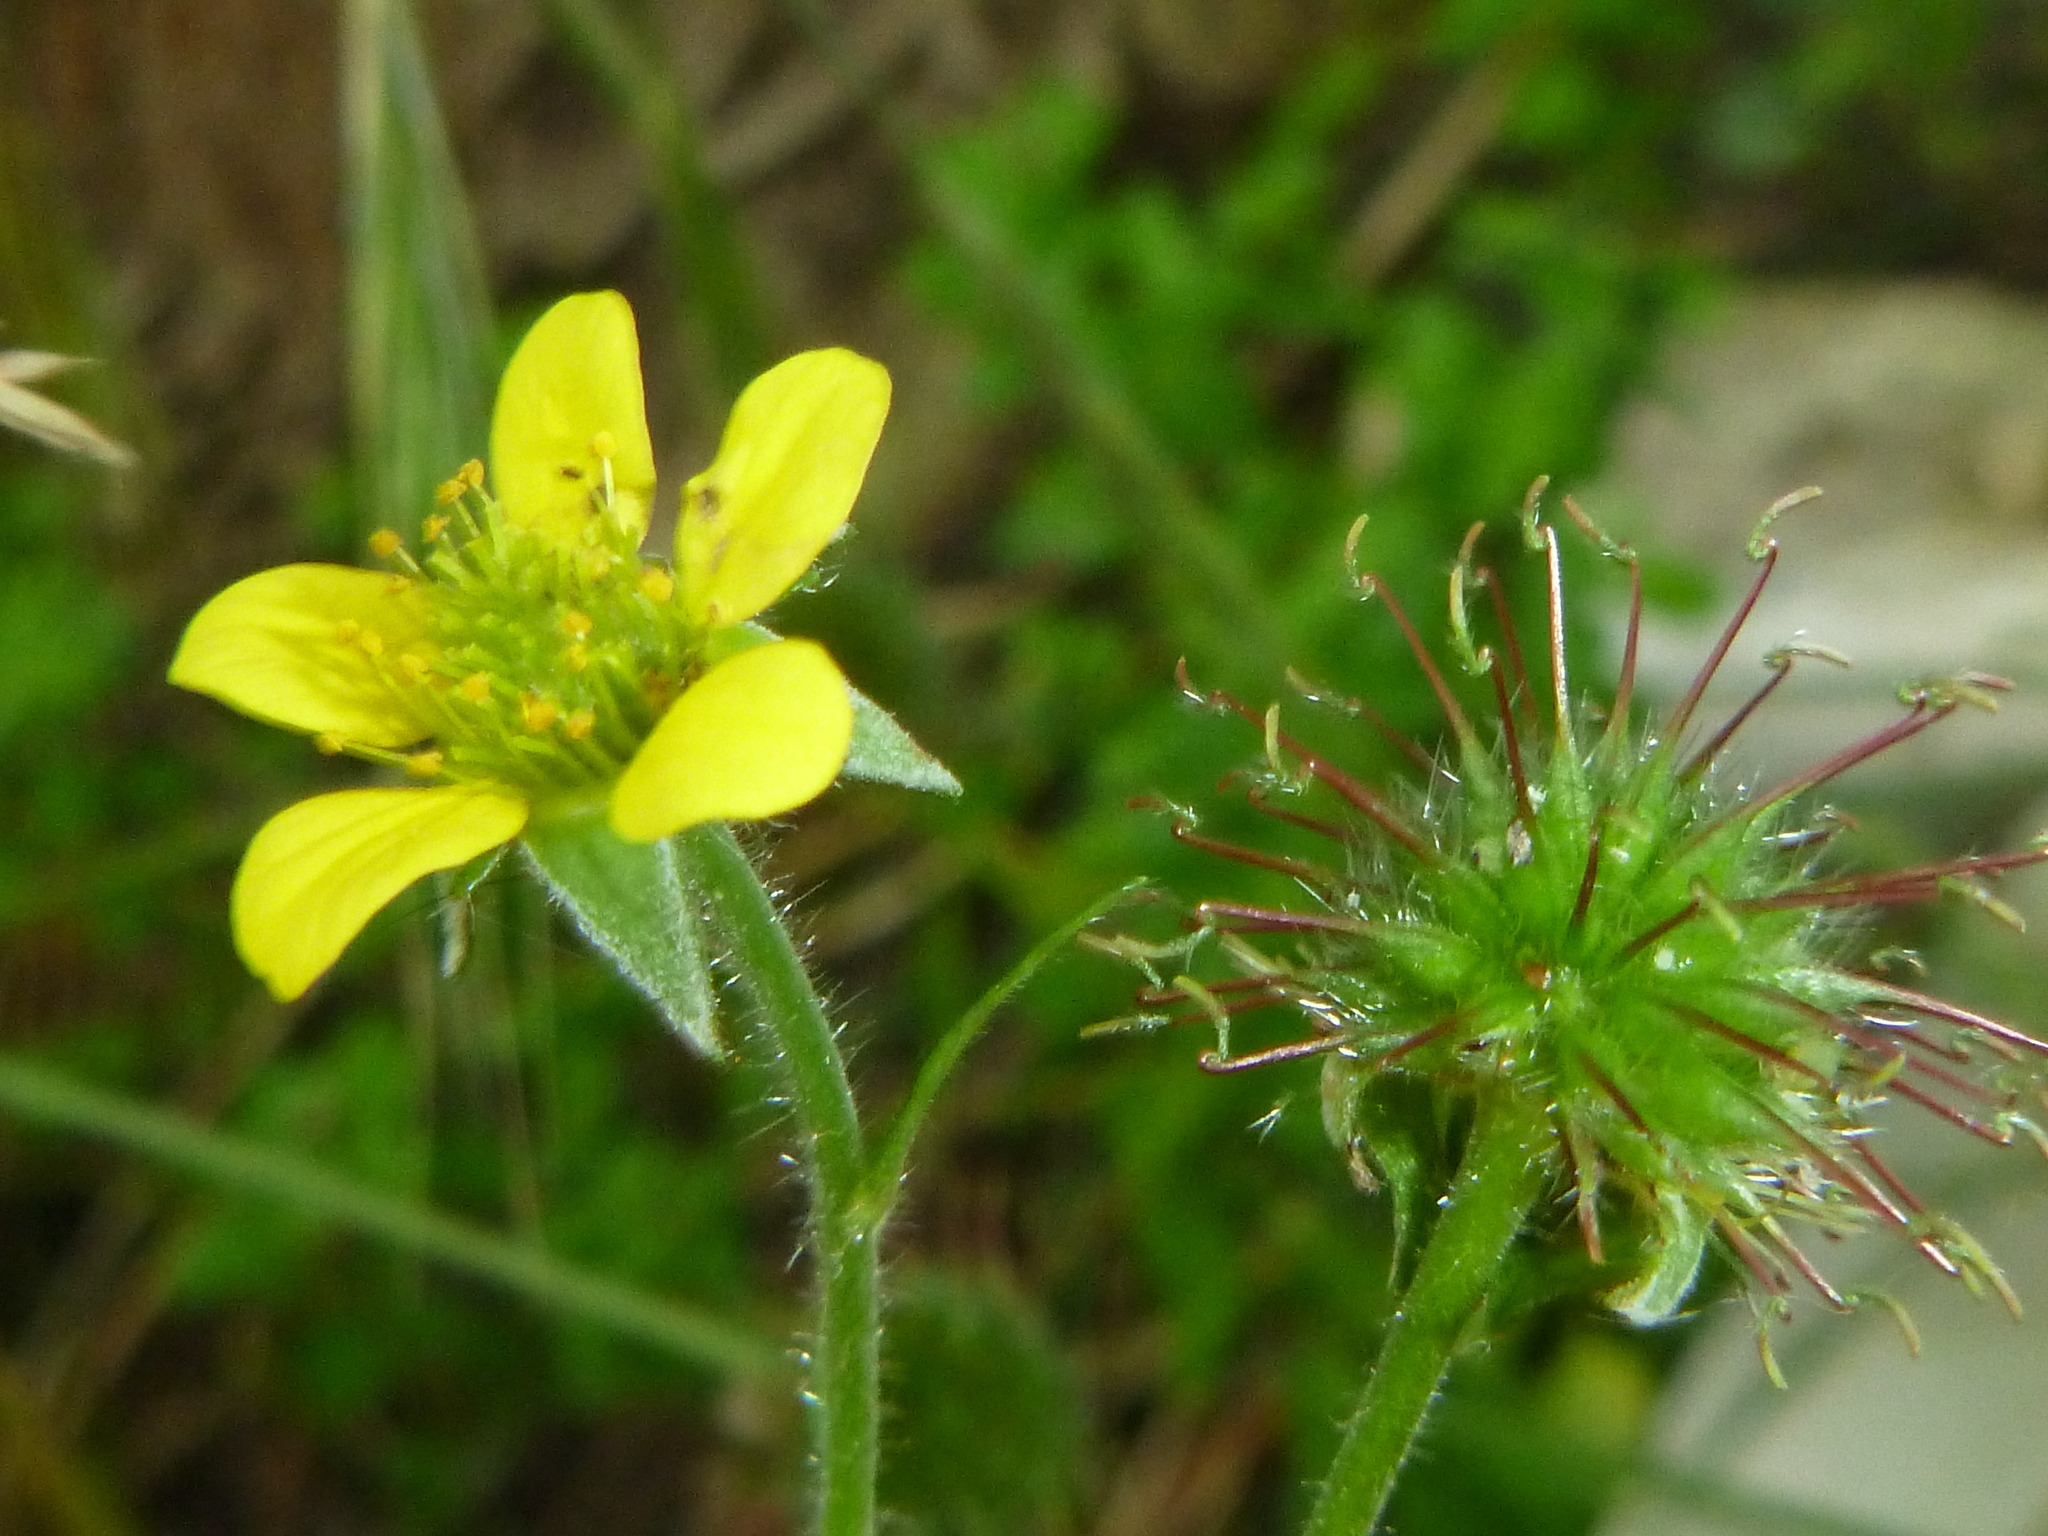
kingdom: Plantae
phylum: Tracheophyta
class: Magnoliopsida
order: Rosales
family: Rosaceae
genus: Geum
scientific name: Geum urbanum
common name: Wood avens
